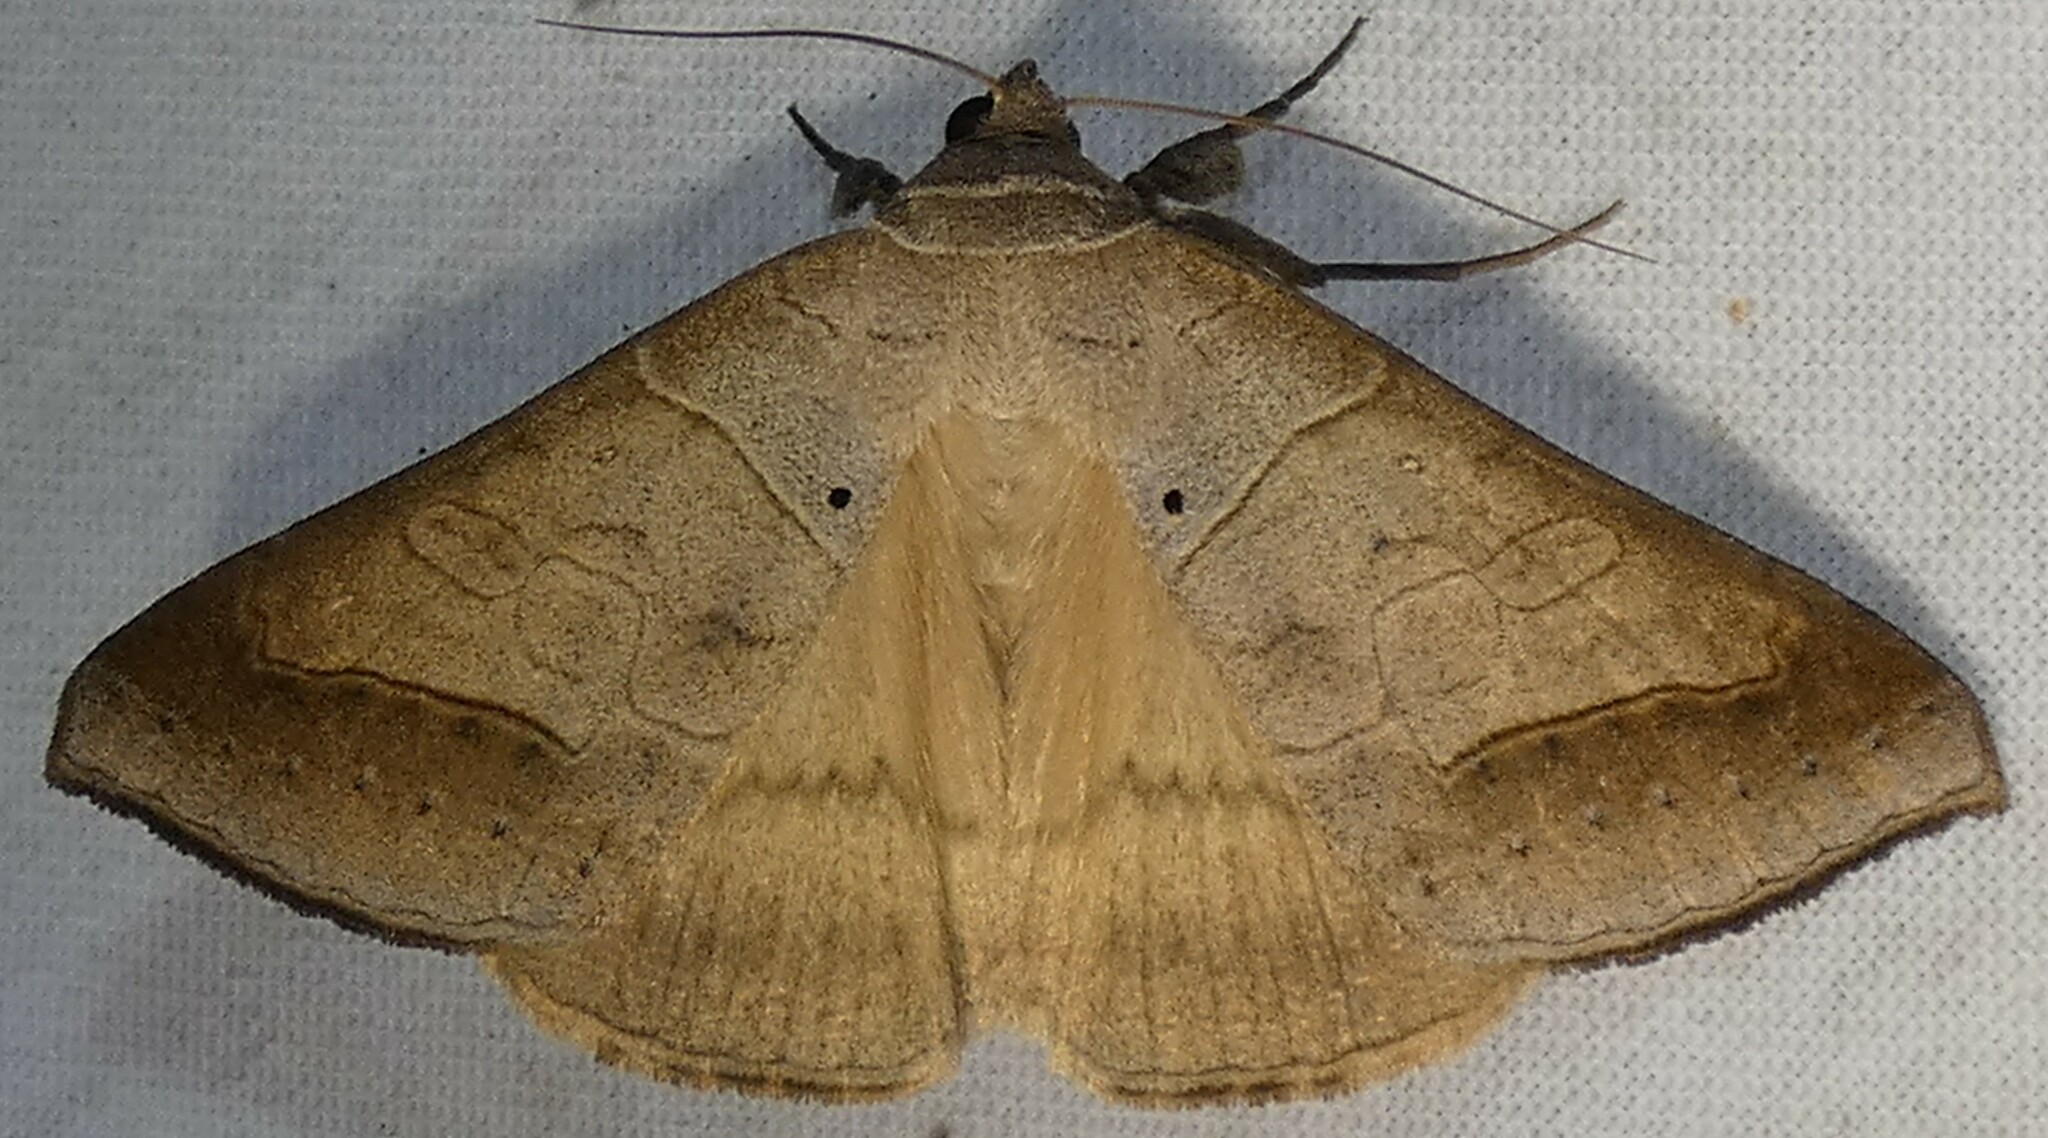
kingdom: Animalia
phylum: Arthropoda
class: Insecta
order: Lepidoptera
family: Erebidae
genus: Mocis
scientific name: Mocis marcida
